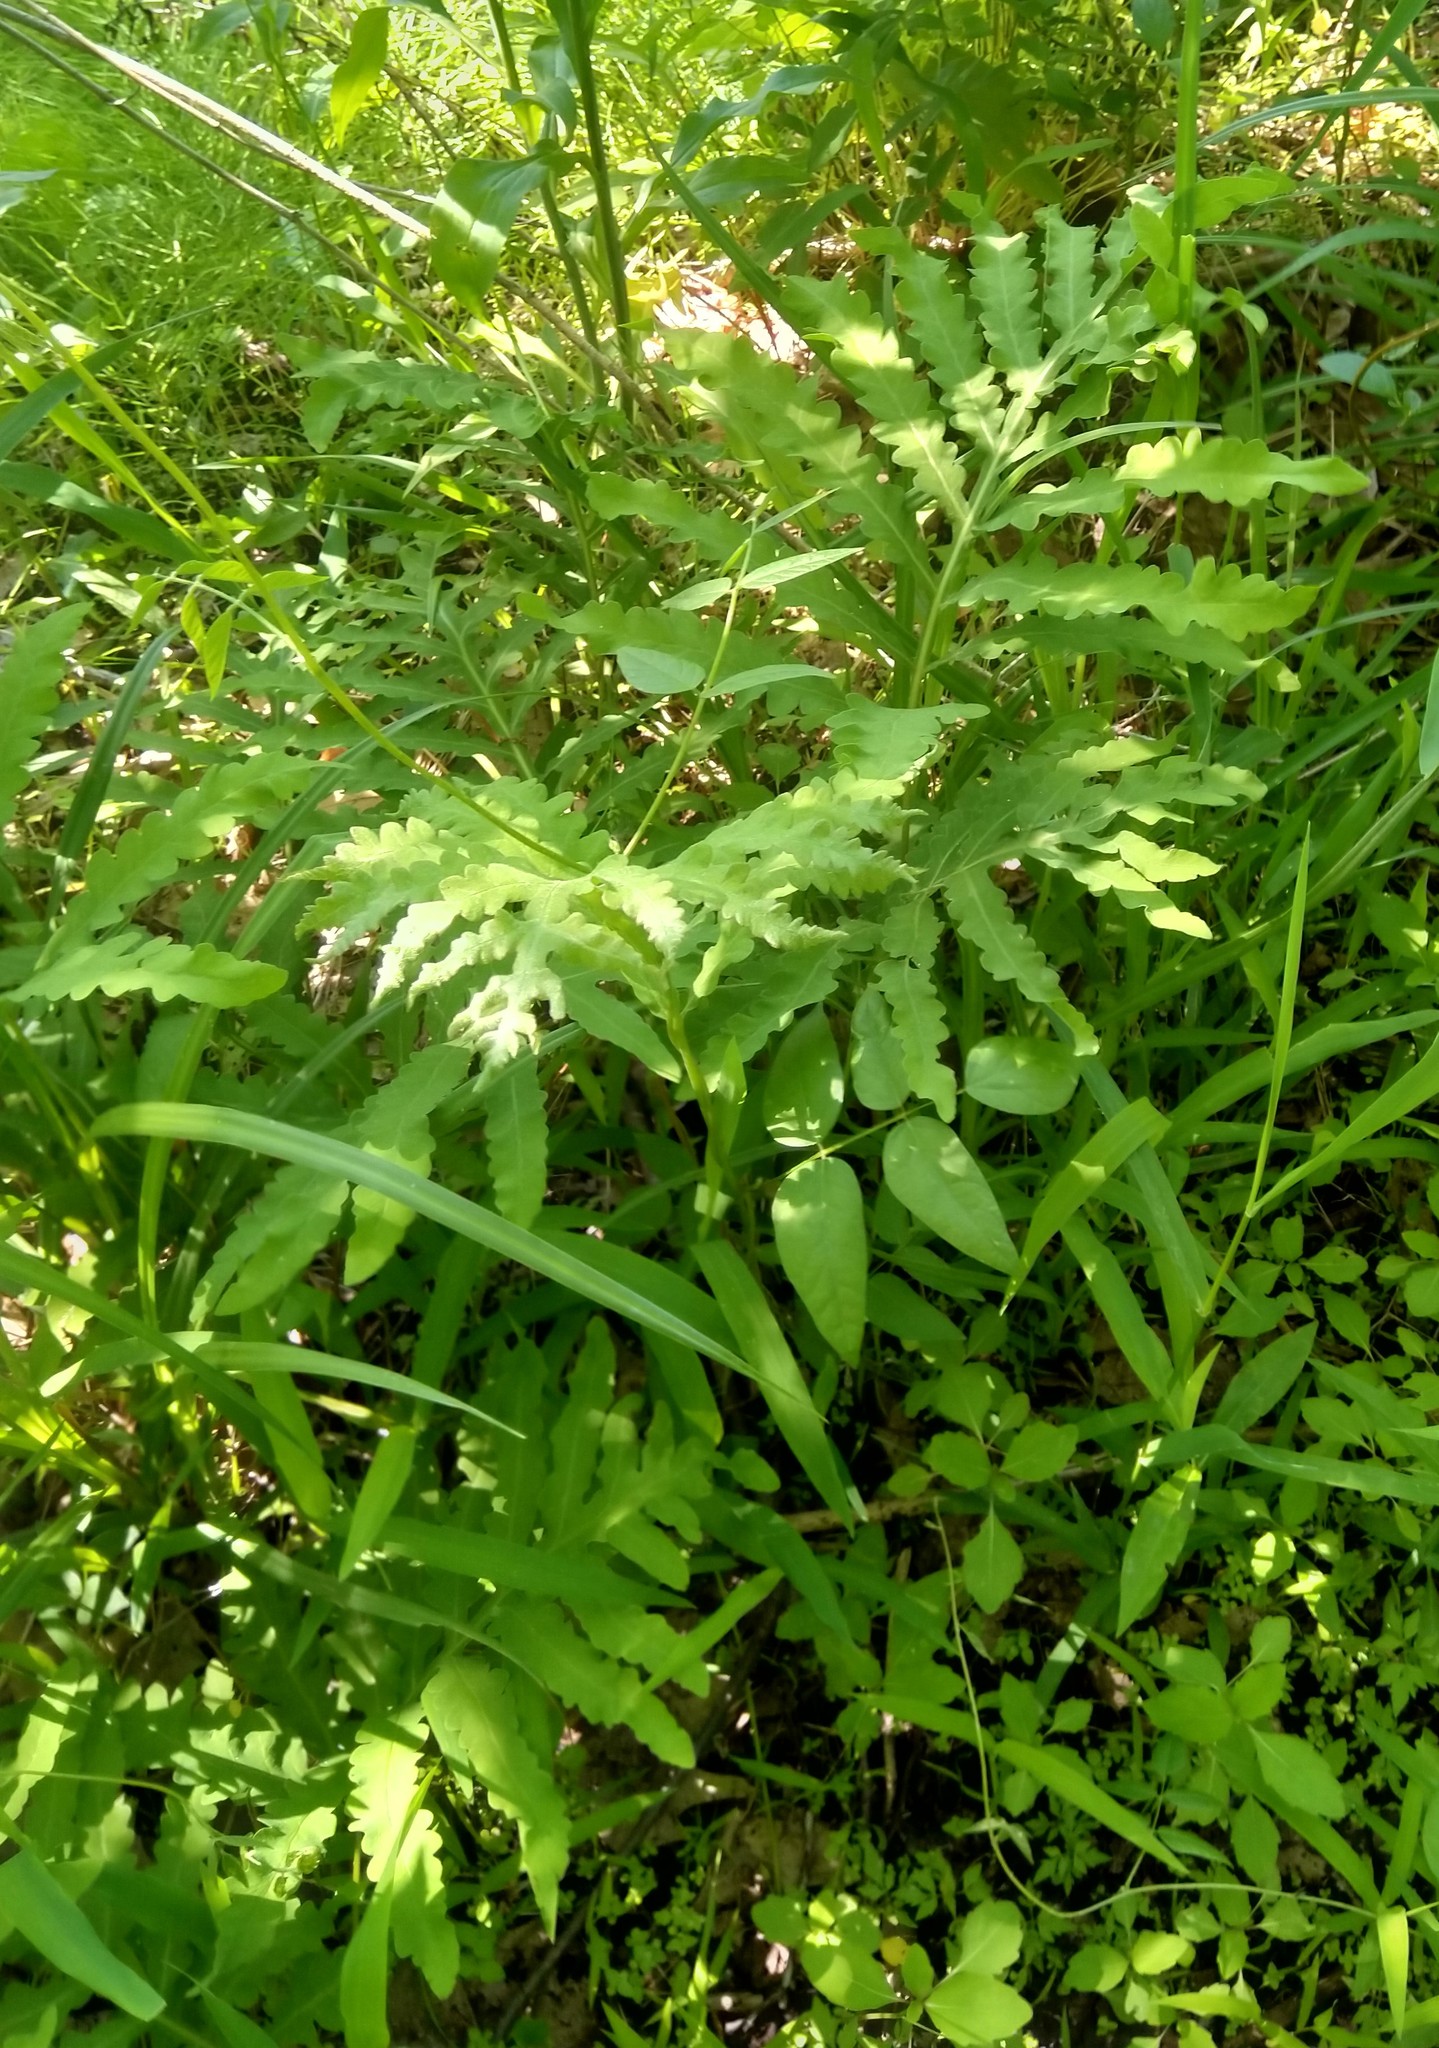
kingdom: Plantae
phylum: Tracheophyta
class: Polypodiopsida
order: Polypodiales
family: Onocleaceae
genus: Onoclea
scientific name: Onoclea sensibilis
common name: Sensitive fern
